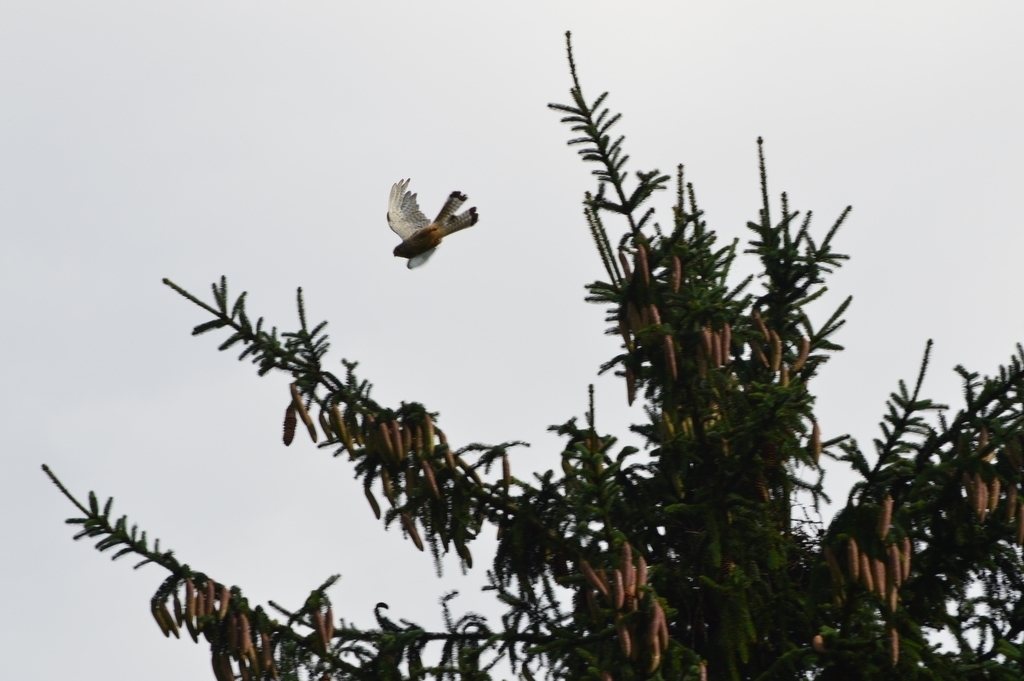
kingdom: Plantae
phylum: Tracheophyta
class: Pinopsida
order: Pinales
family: Pinaceae
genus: Picea
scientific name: Picea abies
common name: Norway spruce
